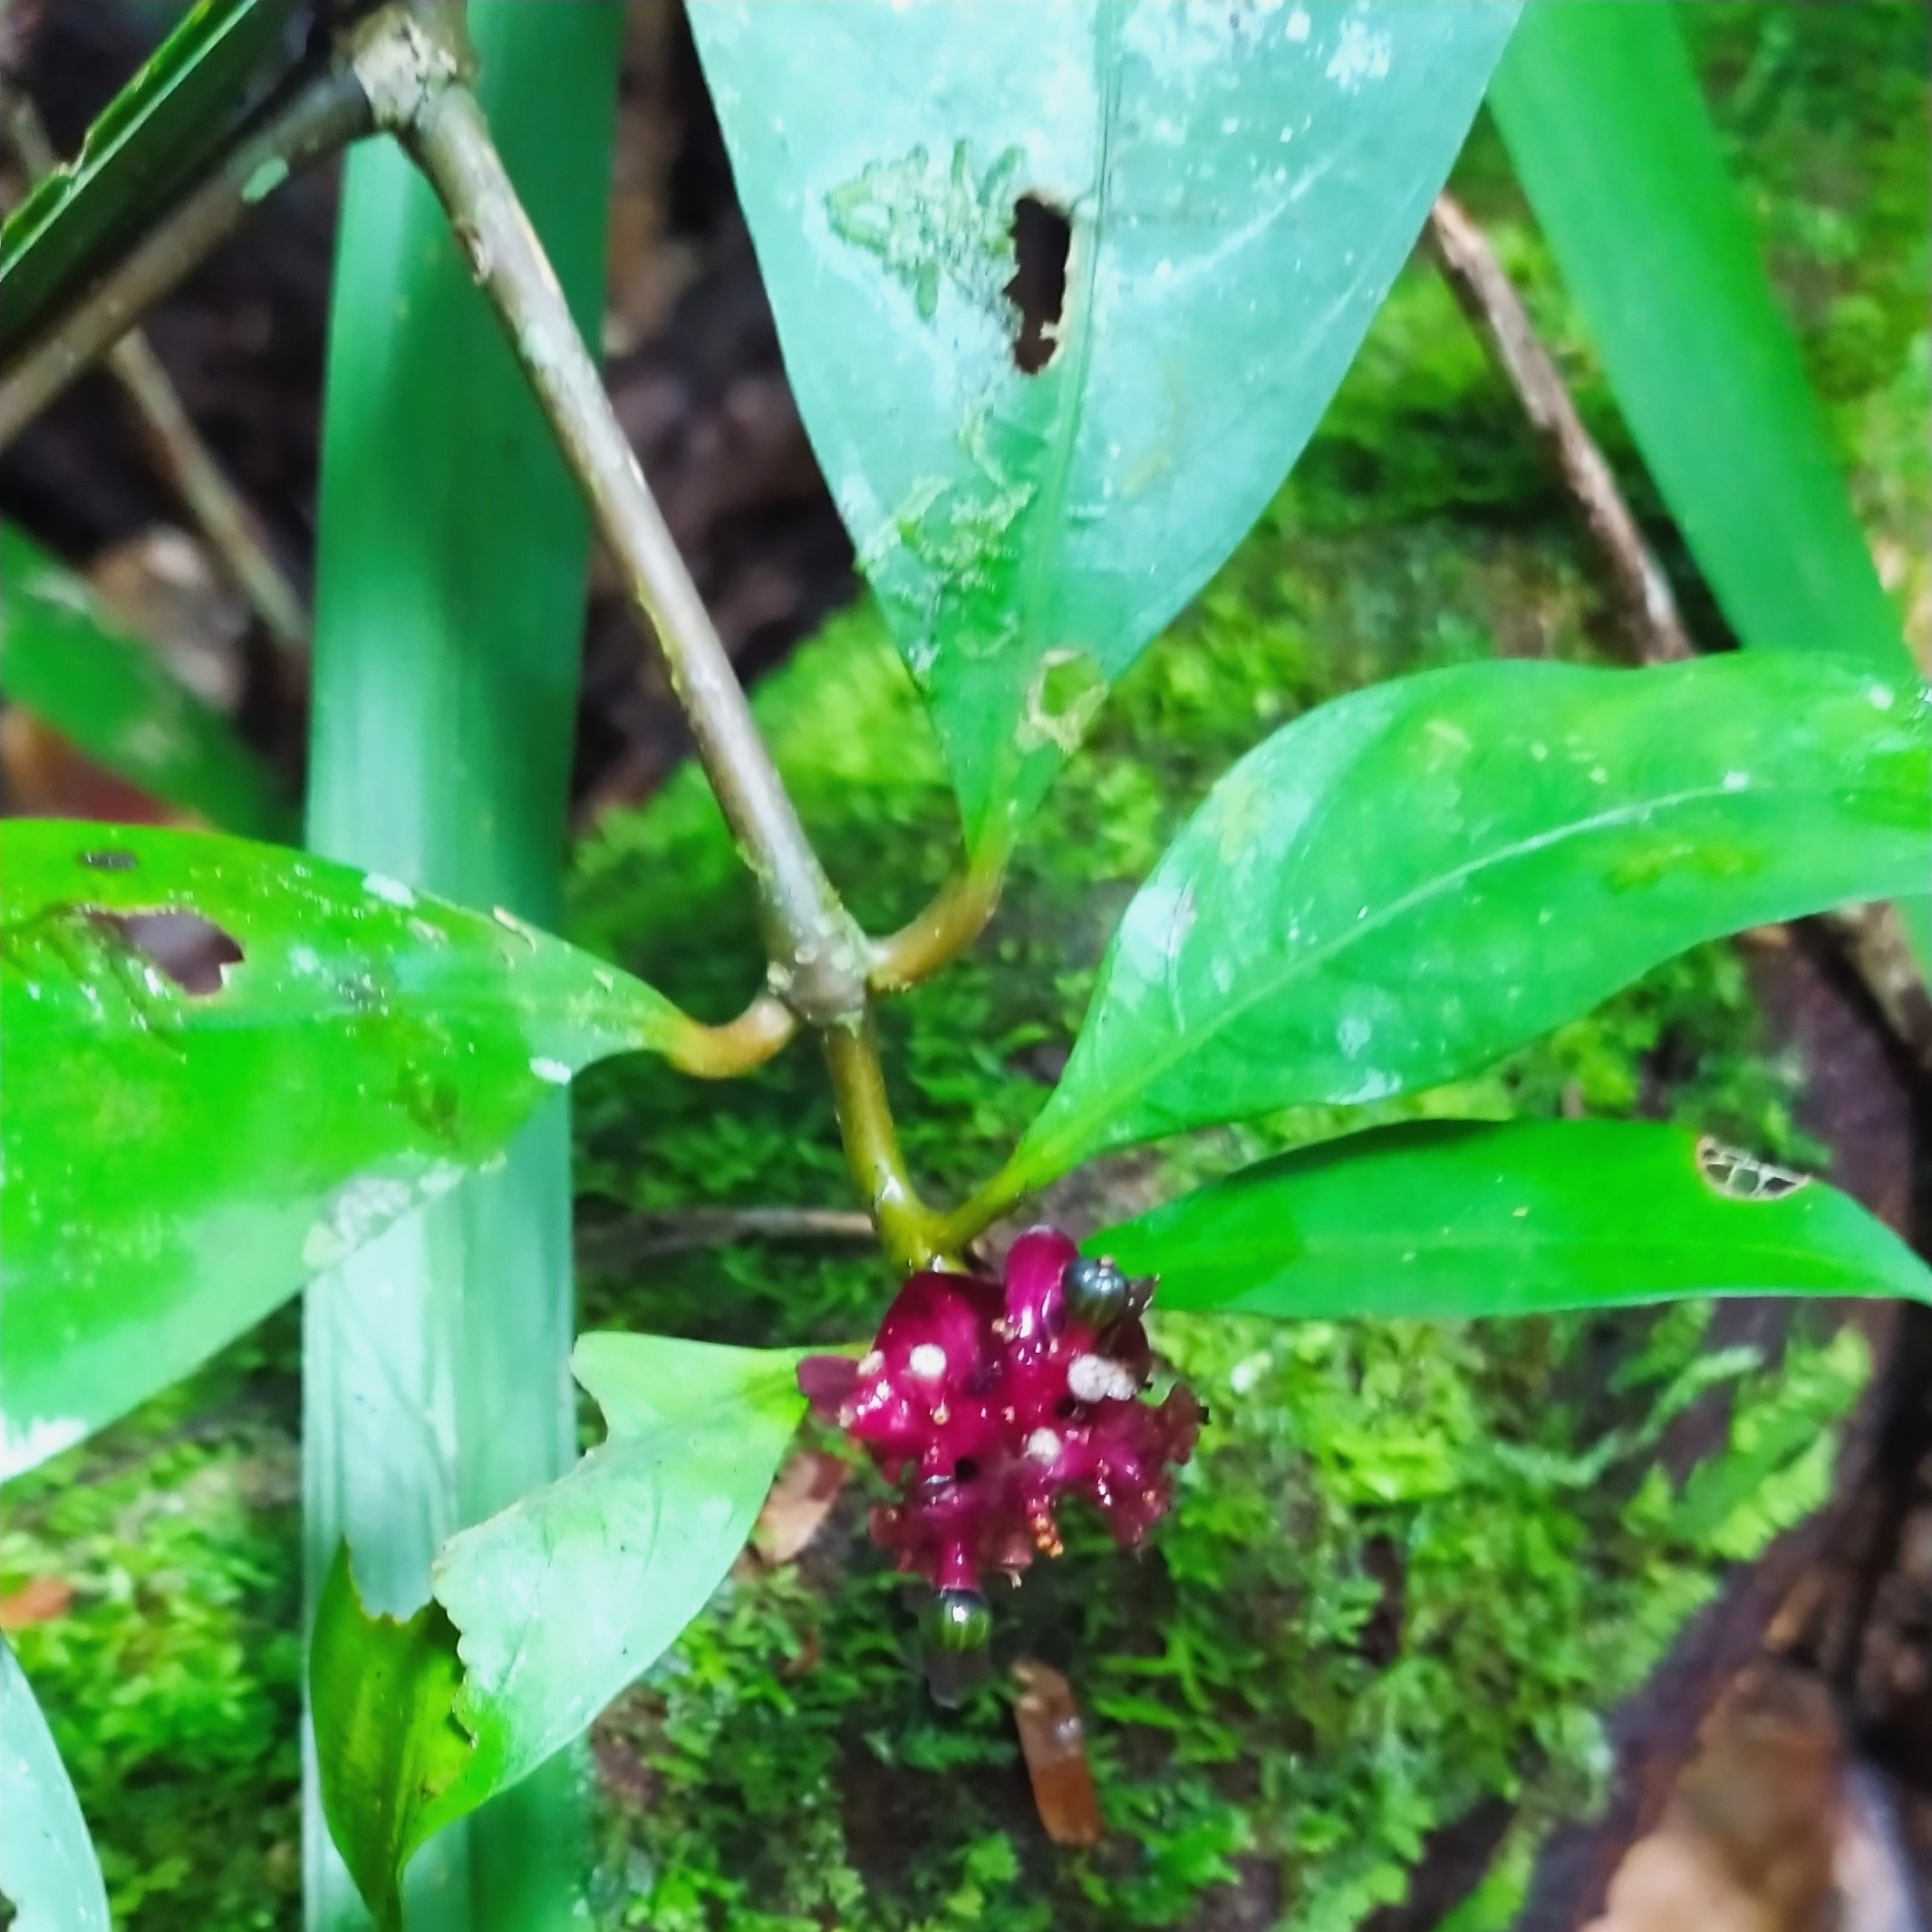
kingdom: Plantae
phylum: Tracheophyta
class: Magnoliopsida
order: Gentianales
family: Rubiaceae
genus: Palicourea
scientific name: Palicourea dichotoma
